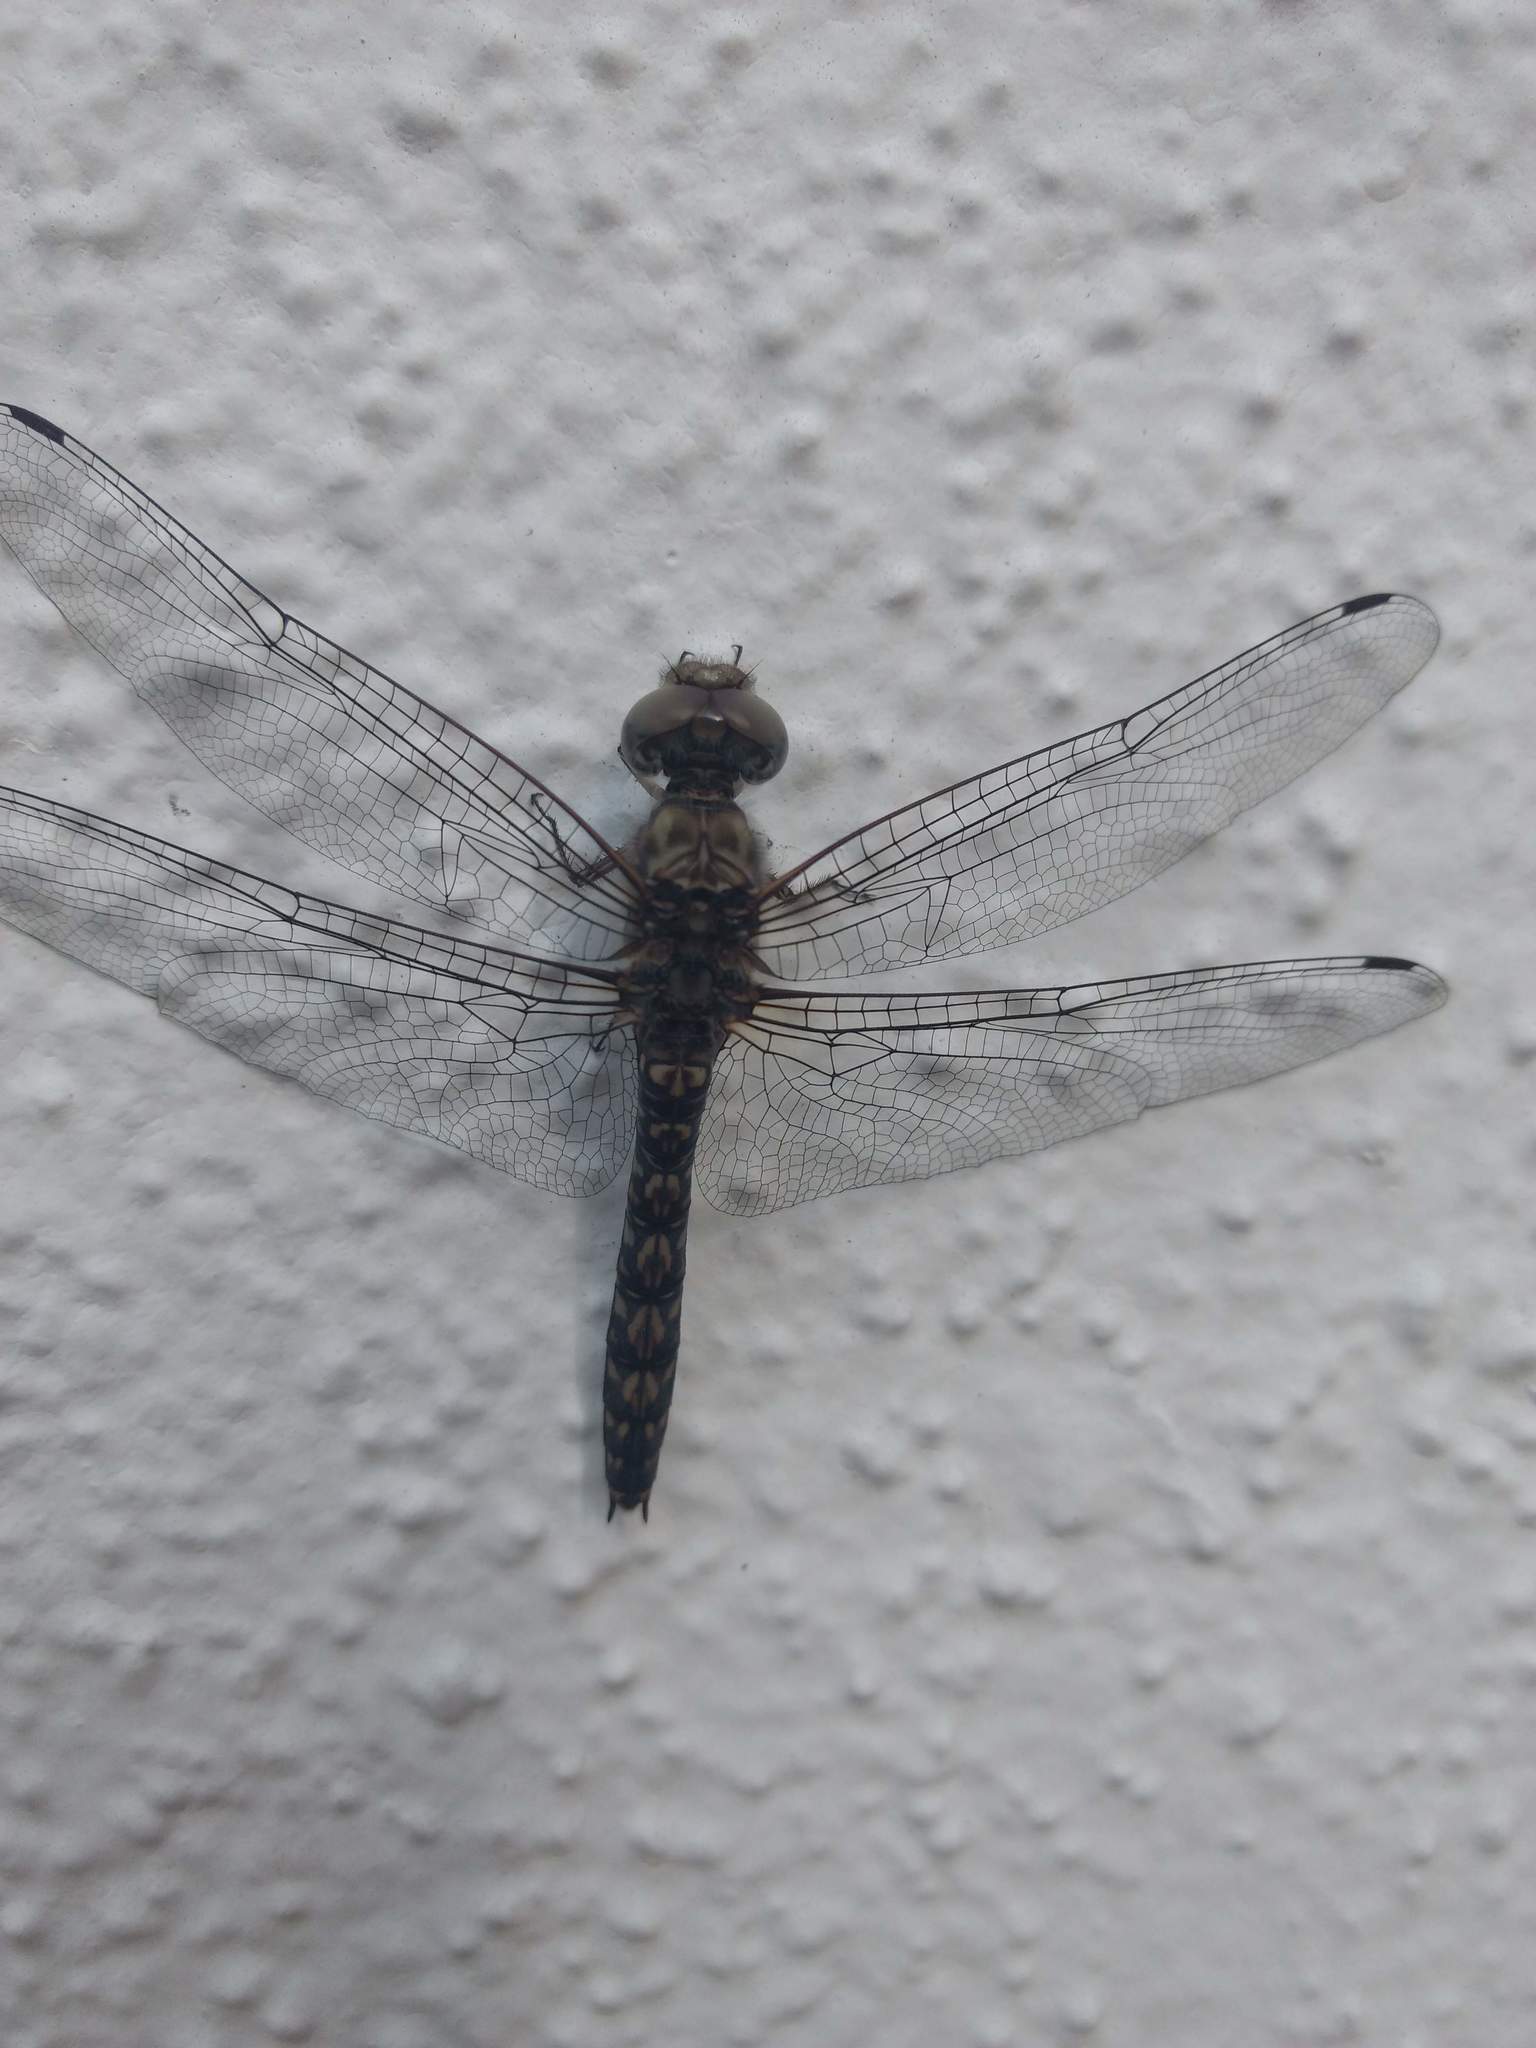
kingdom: Animalia
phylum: Arthropoda
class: Insecta
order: Odonata
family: Libellulidae
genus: Paltothemis
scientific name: Paltothemis lineatipes
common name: Red rock skimmer
